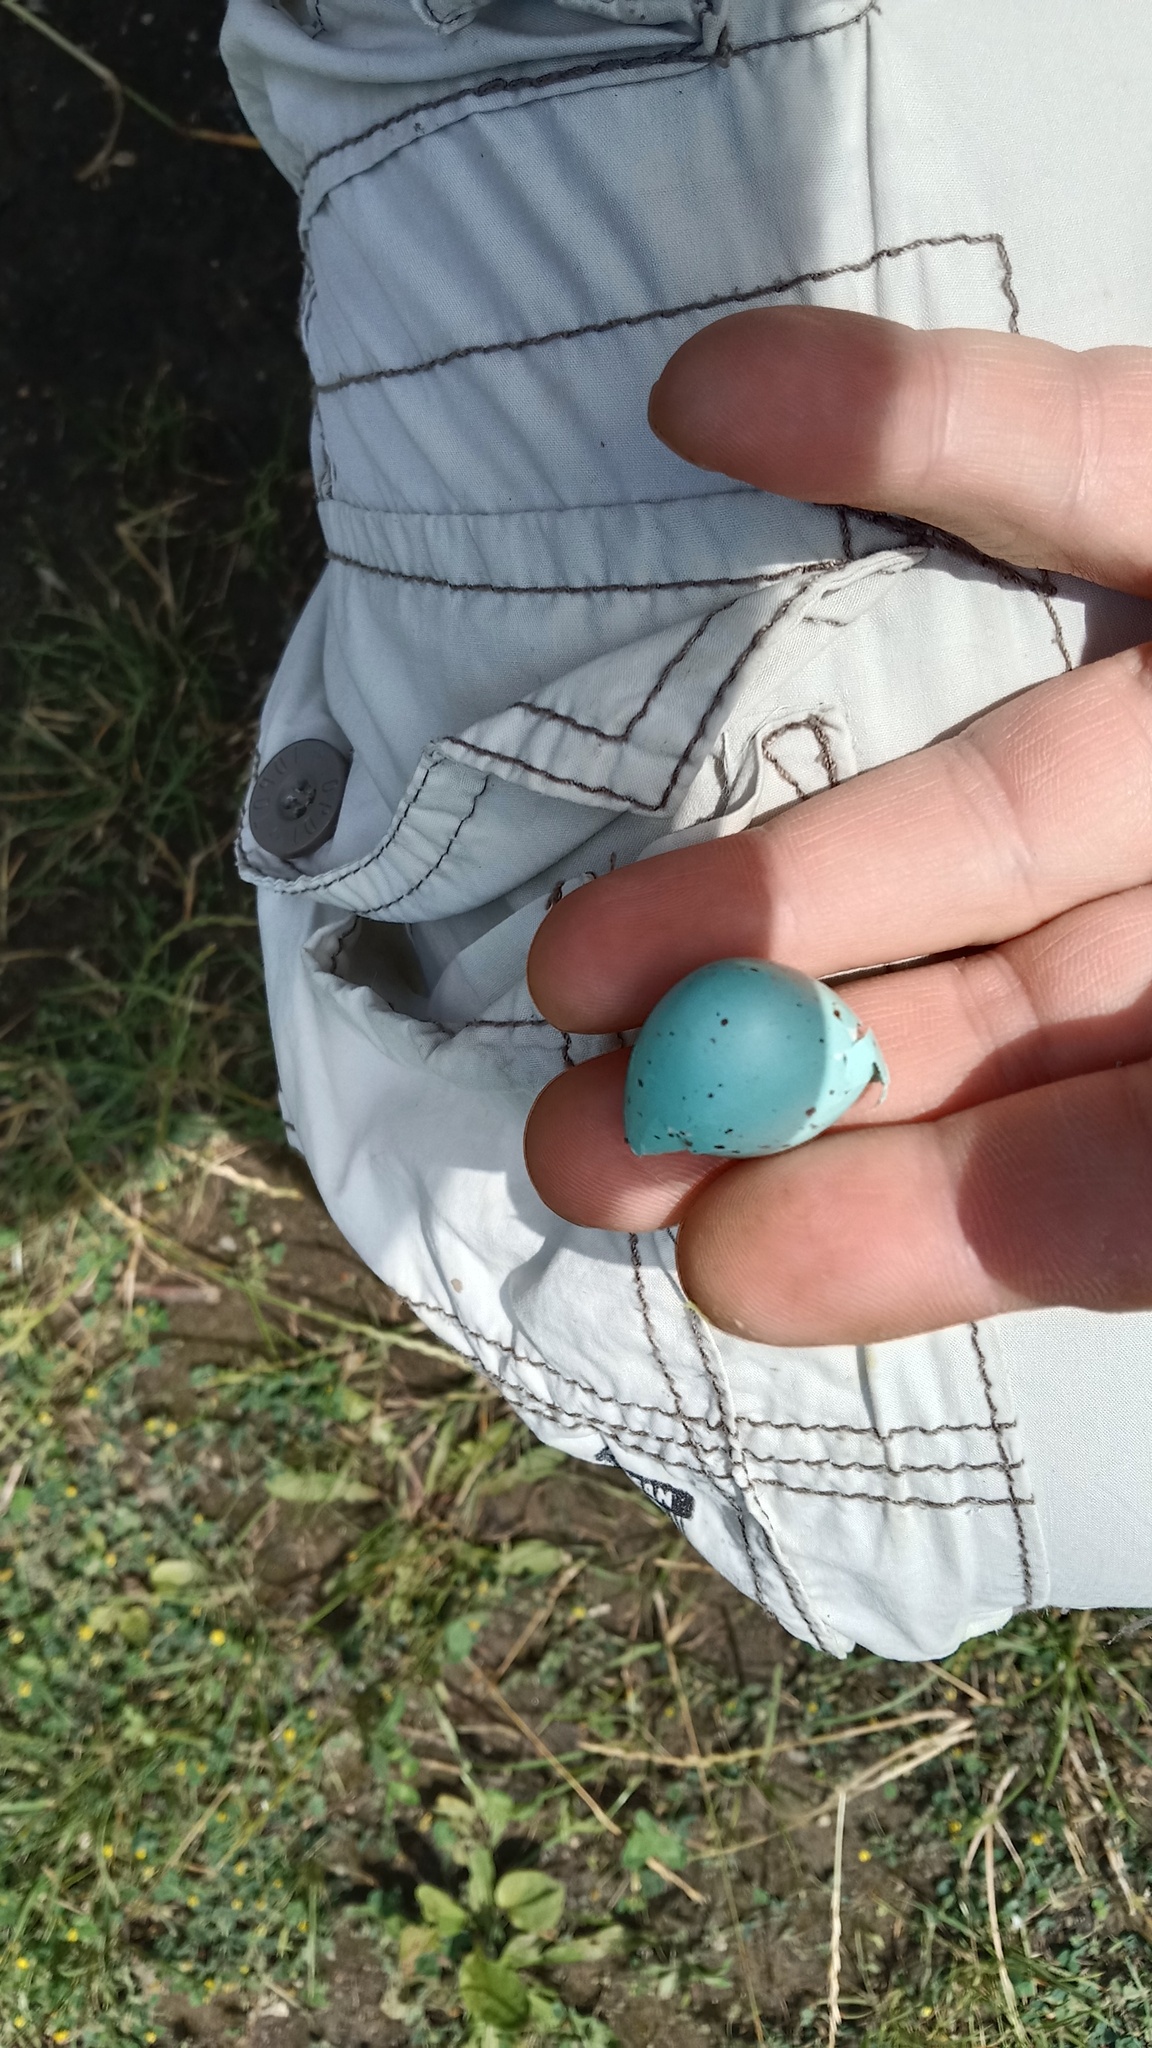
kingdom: Animalia
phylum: Chordata
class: Aves
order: Passeriformes
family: Turdidae
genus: Turdus
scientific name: Turdus philomelos
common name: Song thrush
